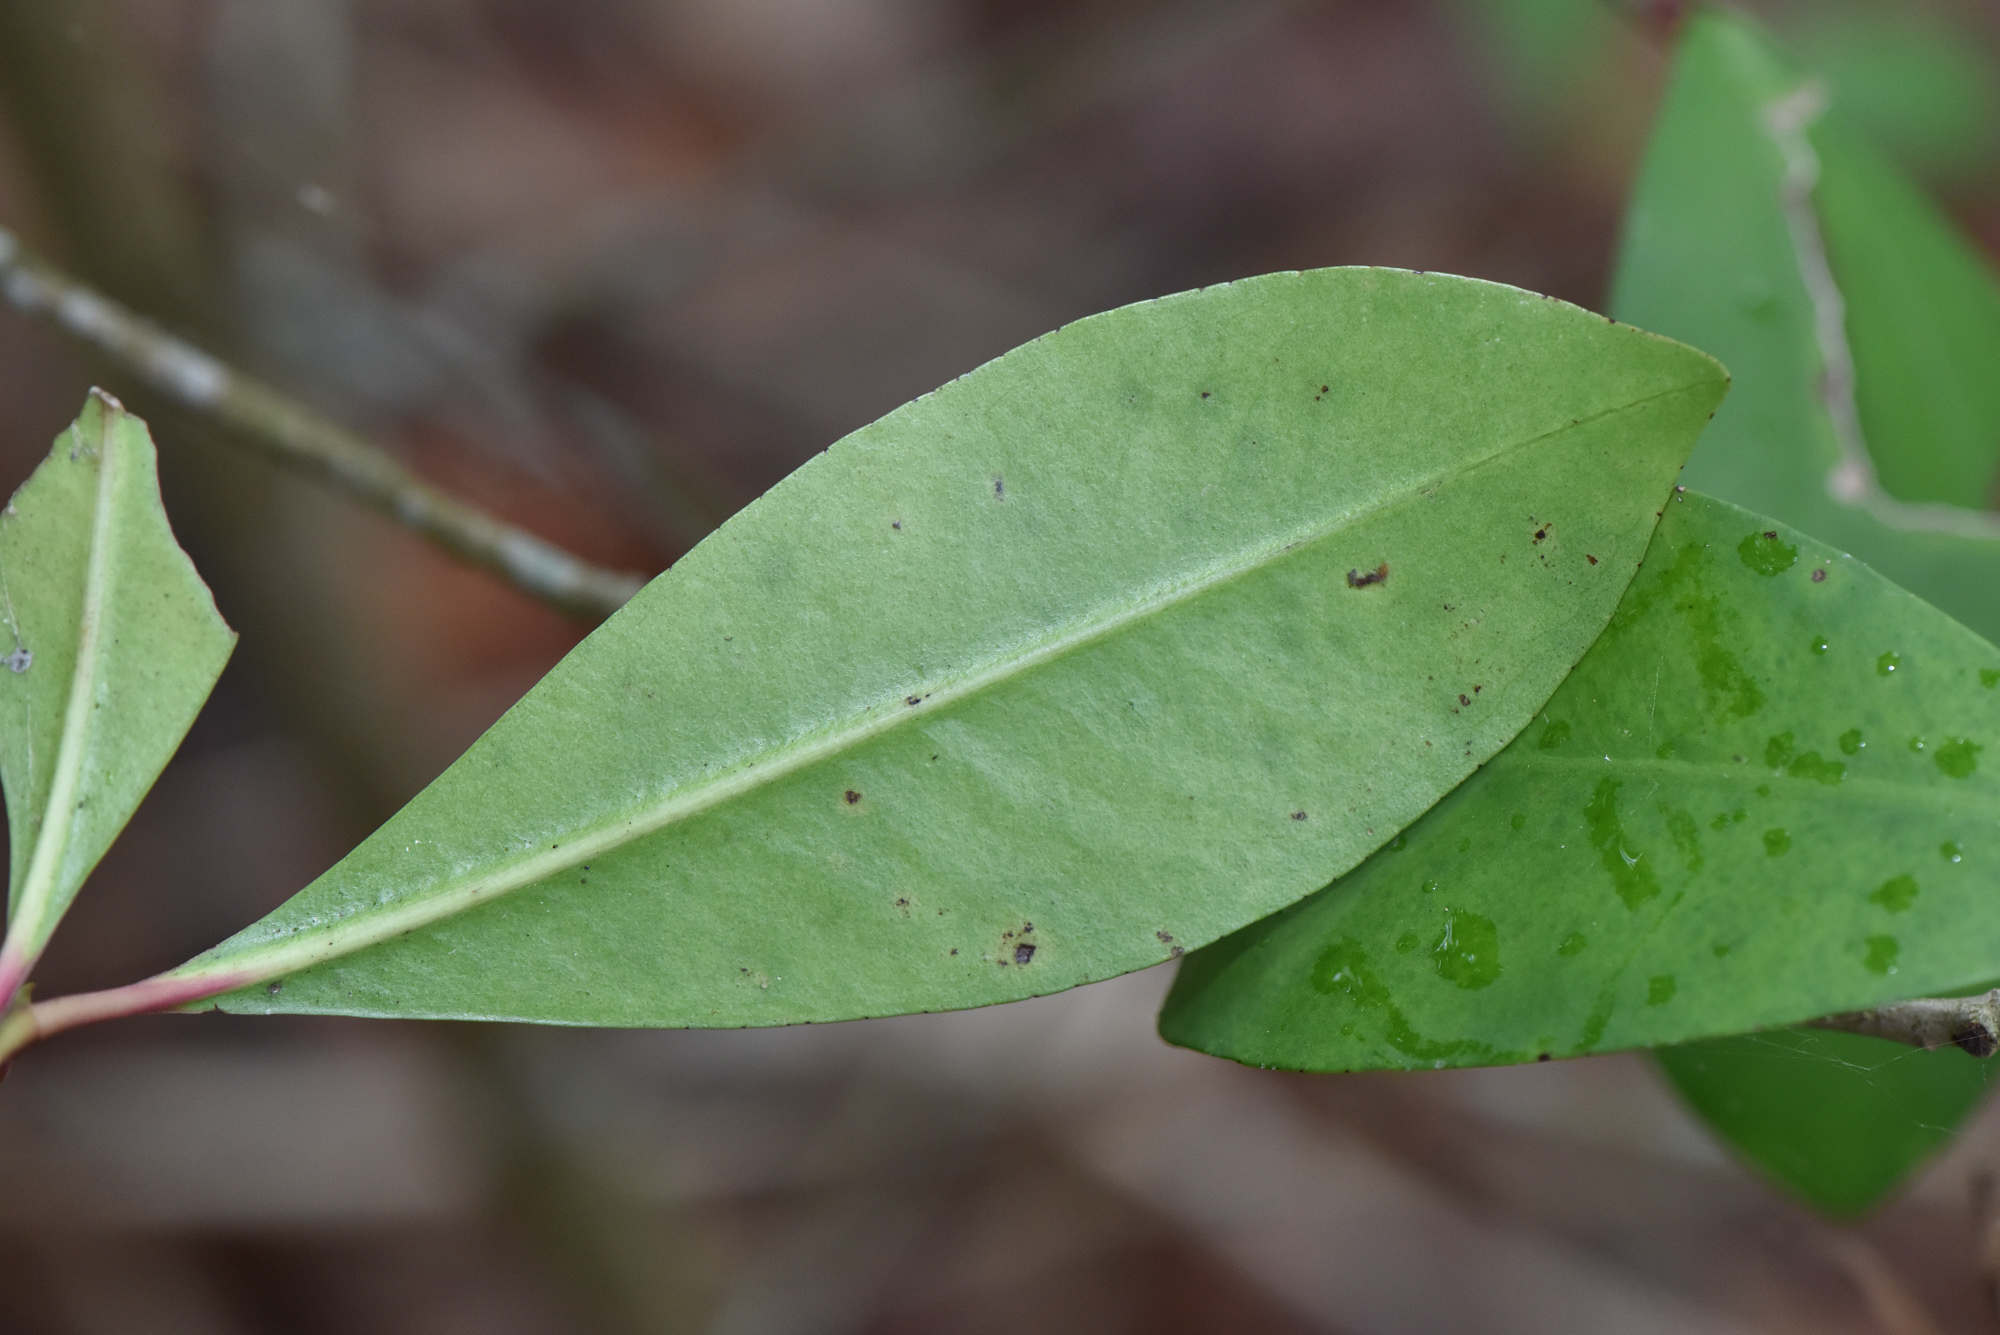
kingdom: Plantae
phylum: Tracheophyta
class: Magnoliopsida
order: Ericales
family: Primulaceae
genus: Ardisia
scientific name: Ardisia sieboldii
